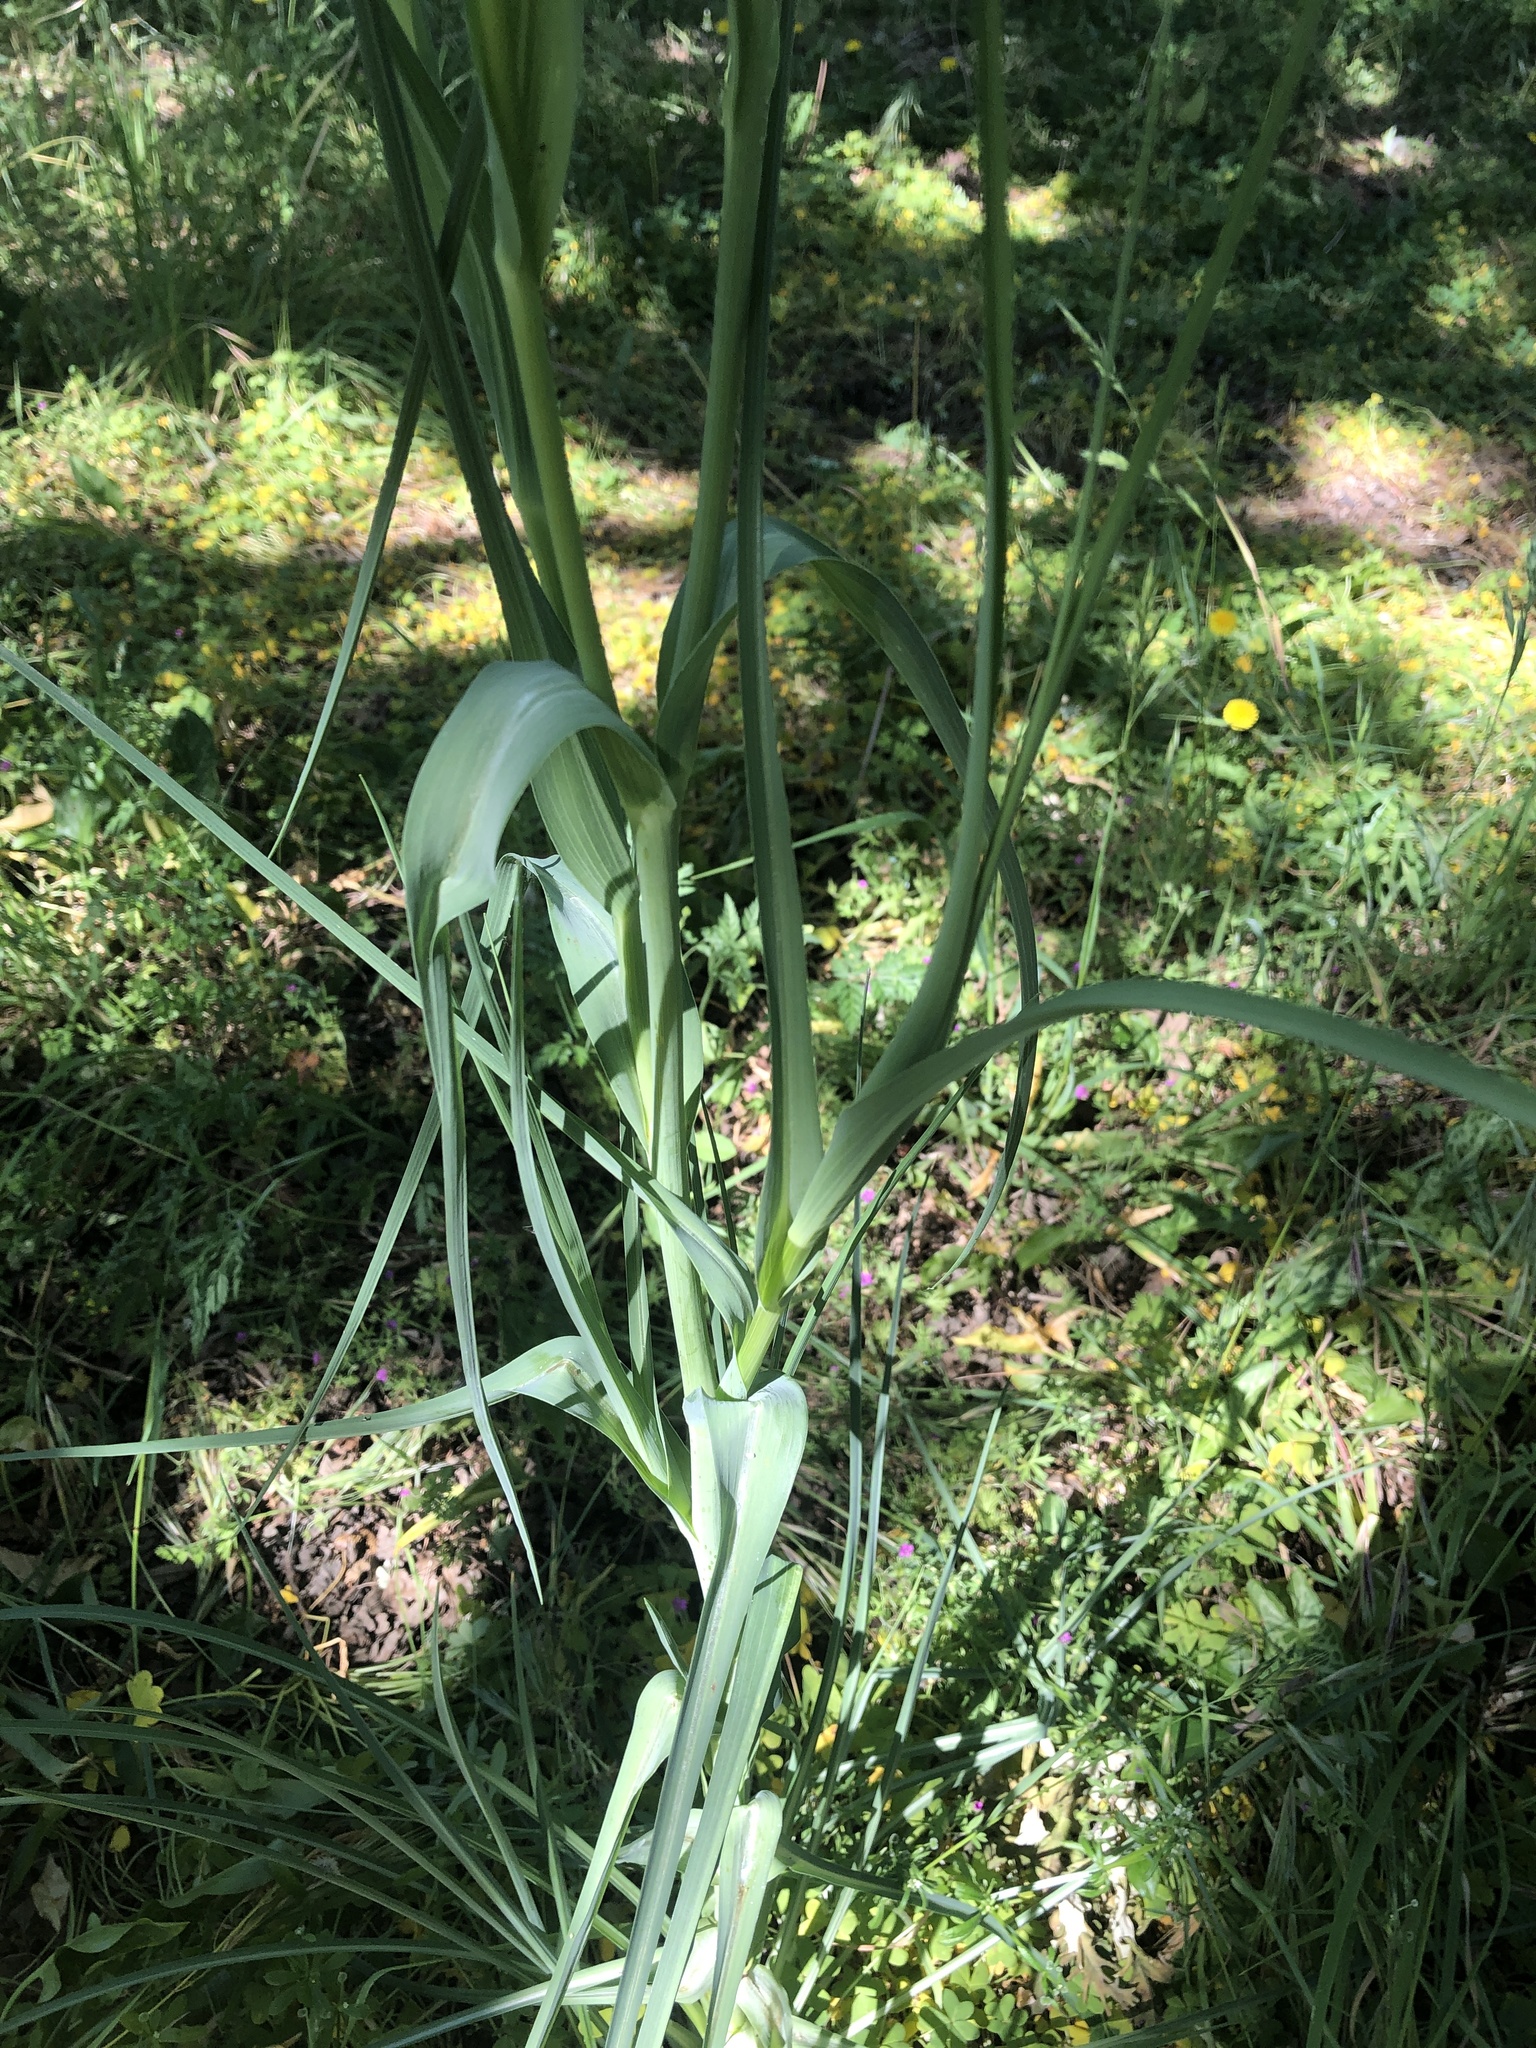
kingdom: Plantae
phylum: Tracheophyta
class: Magnoliopsida
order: Asterales
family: Asteraceae
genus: Tragopogon
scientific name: Tragopogon porrifolius
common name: Salsify
